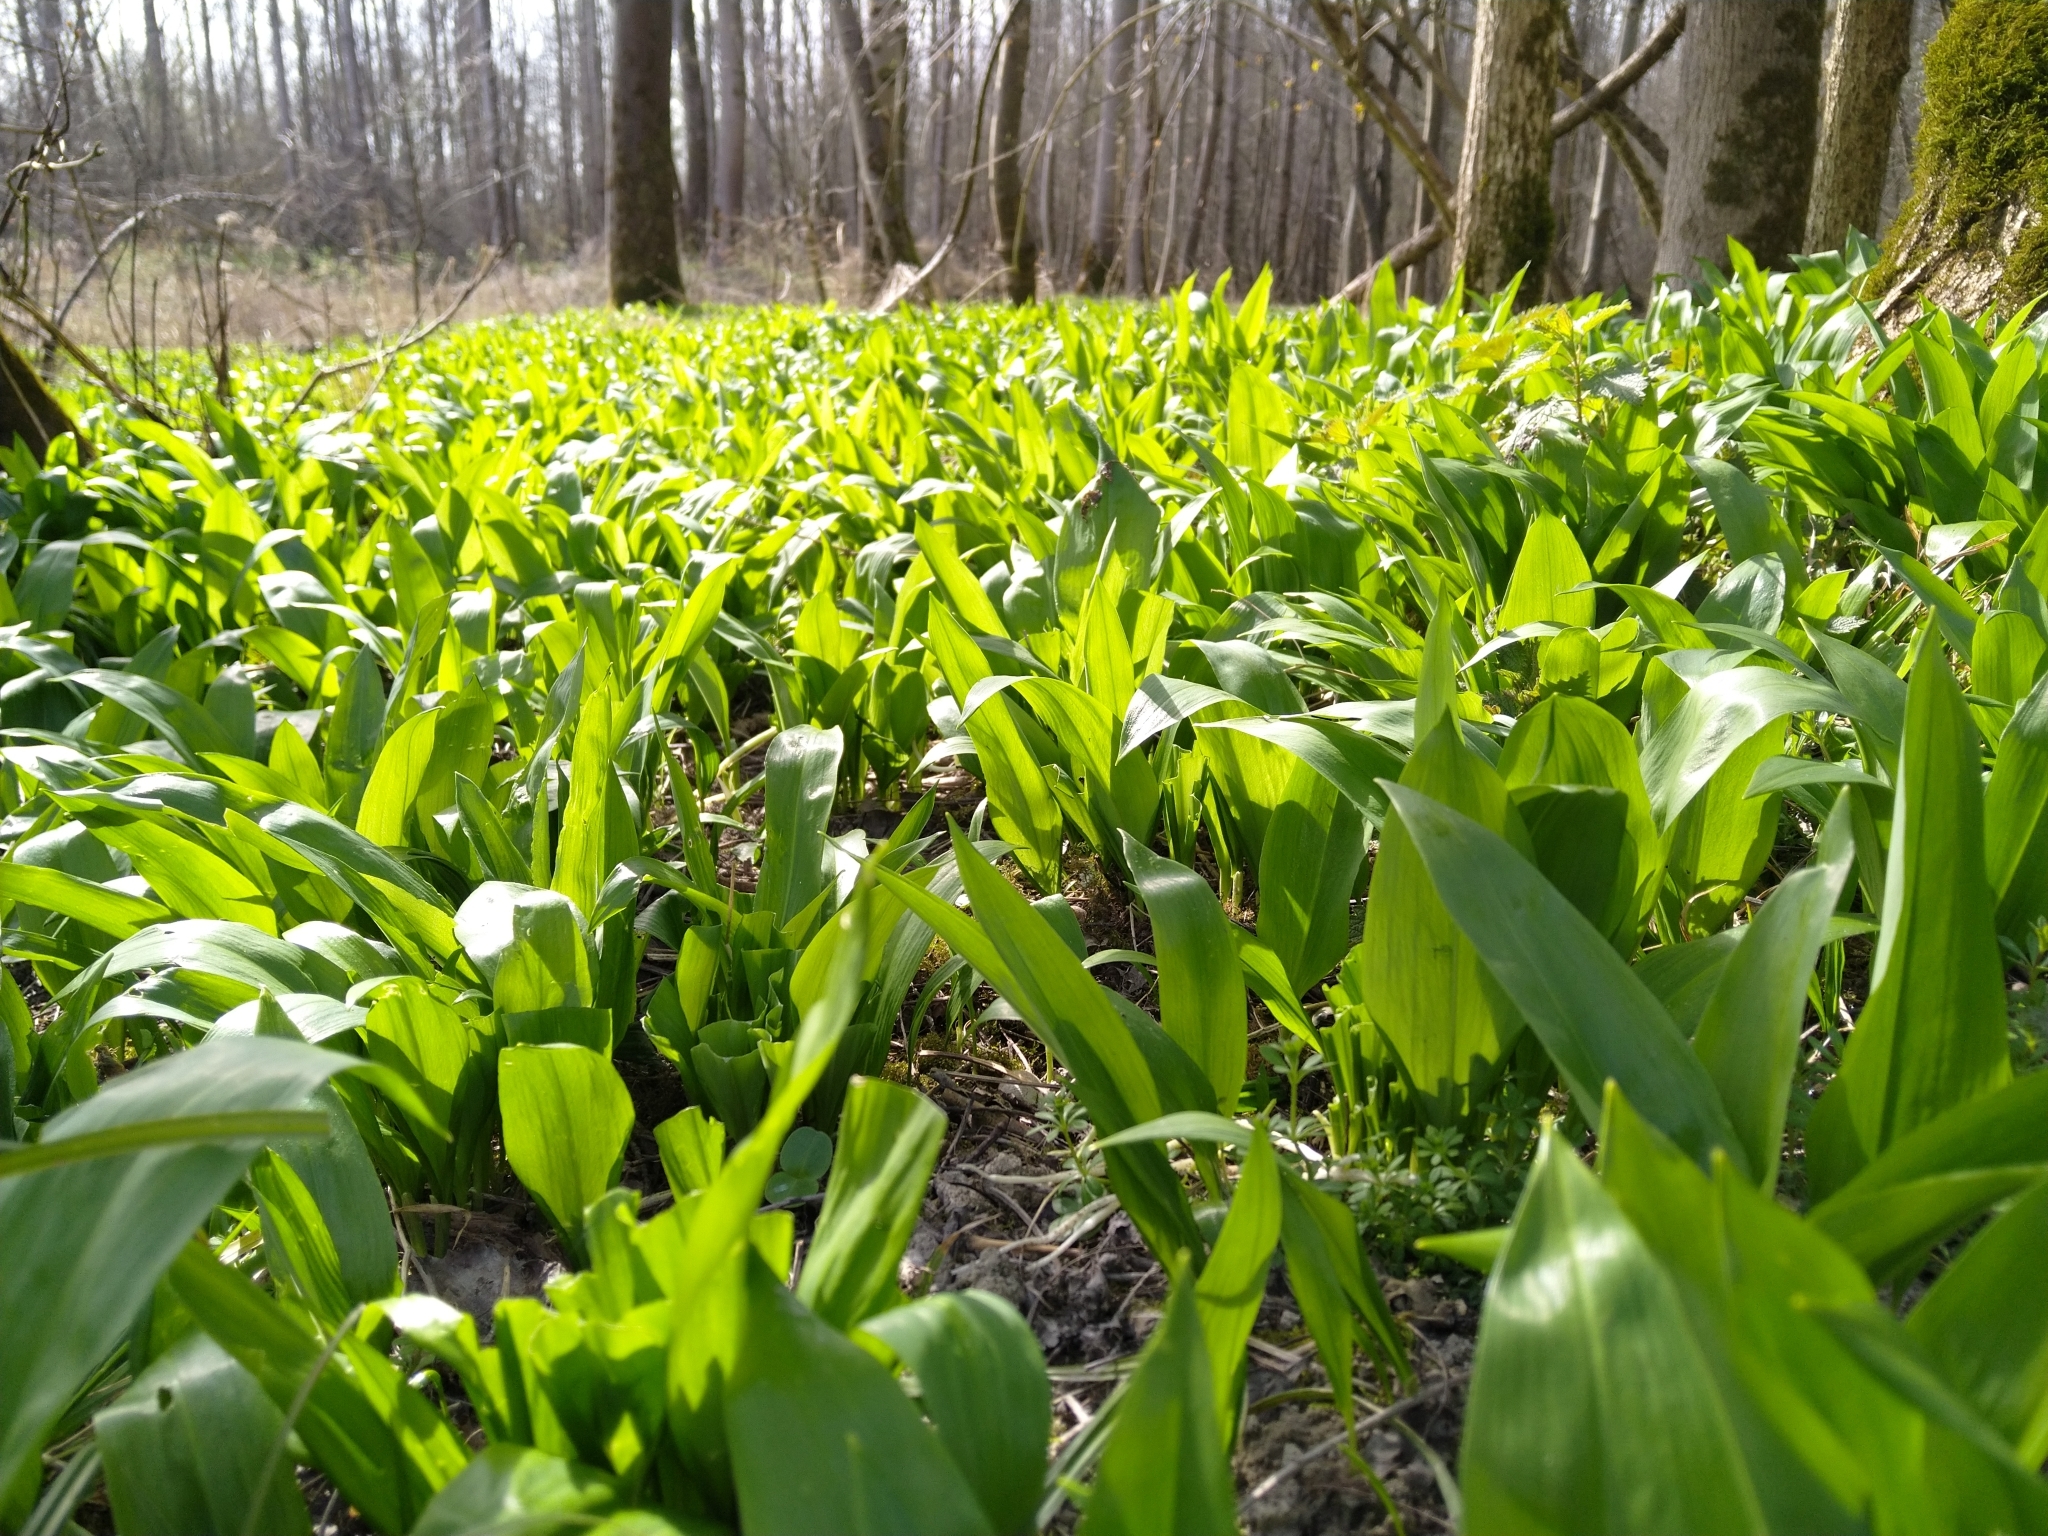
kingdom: Plantae
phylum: Tracheophyta
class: Liliopsida
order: Asparagales
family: Amaryllidaceae
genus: Allium
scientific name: Allium ursinum
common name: Ramsons
